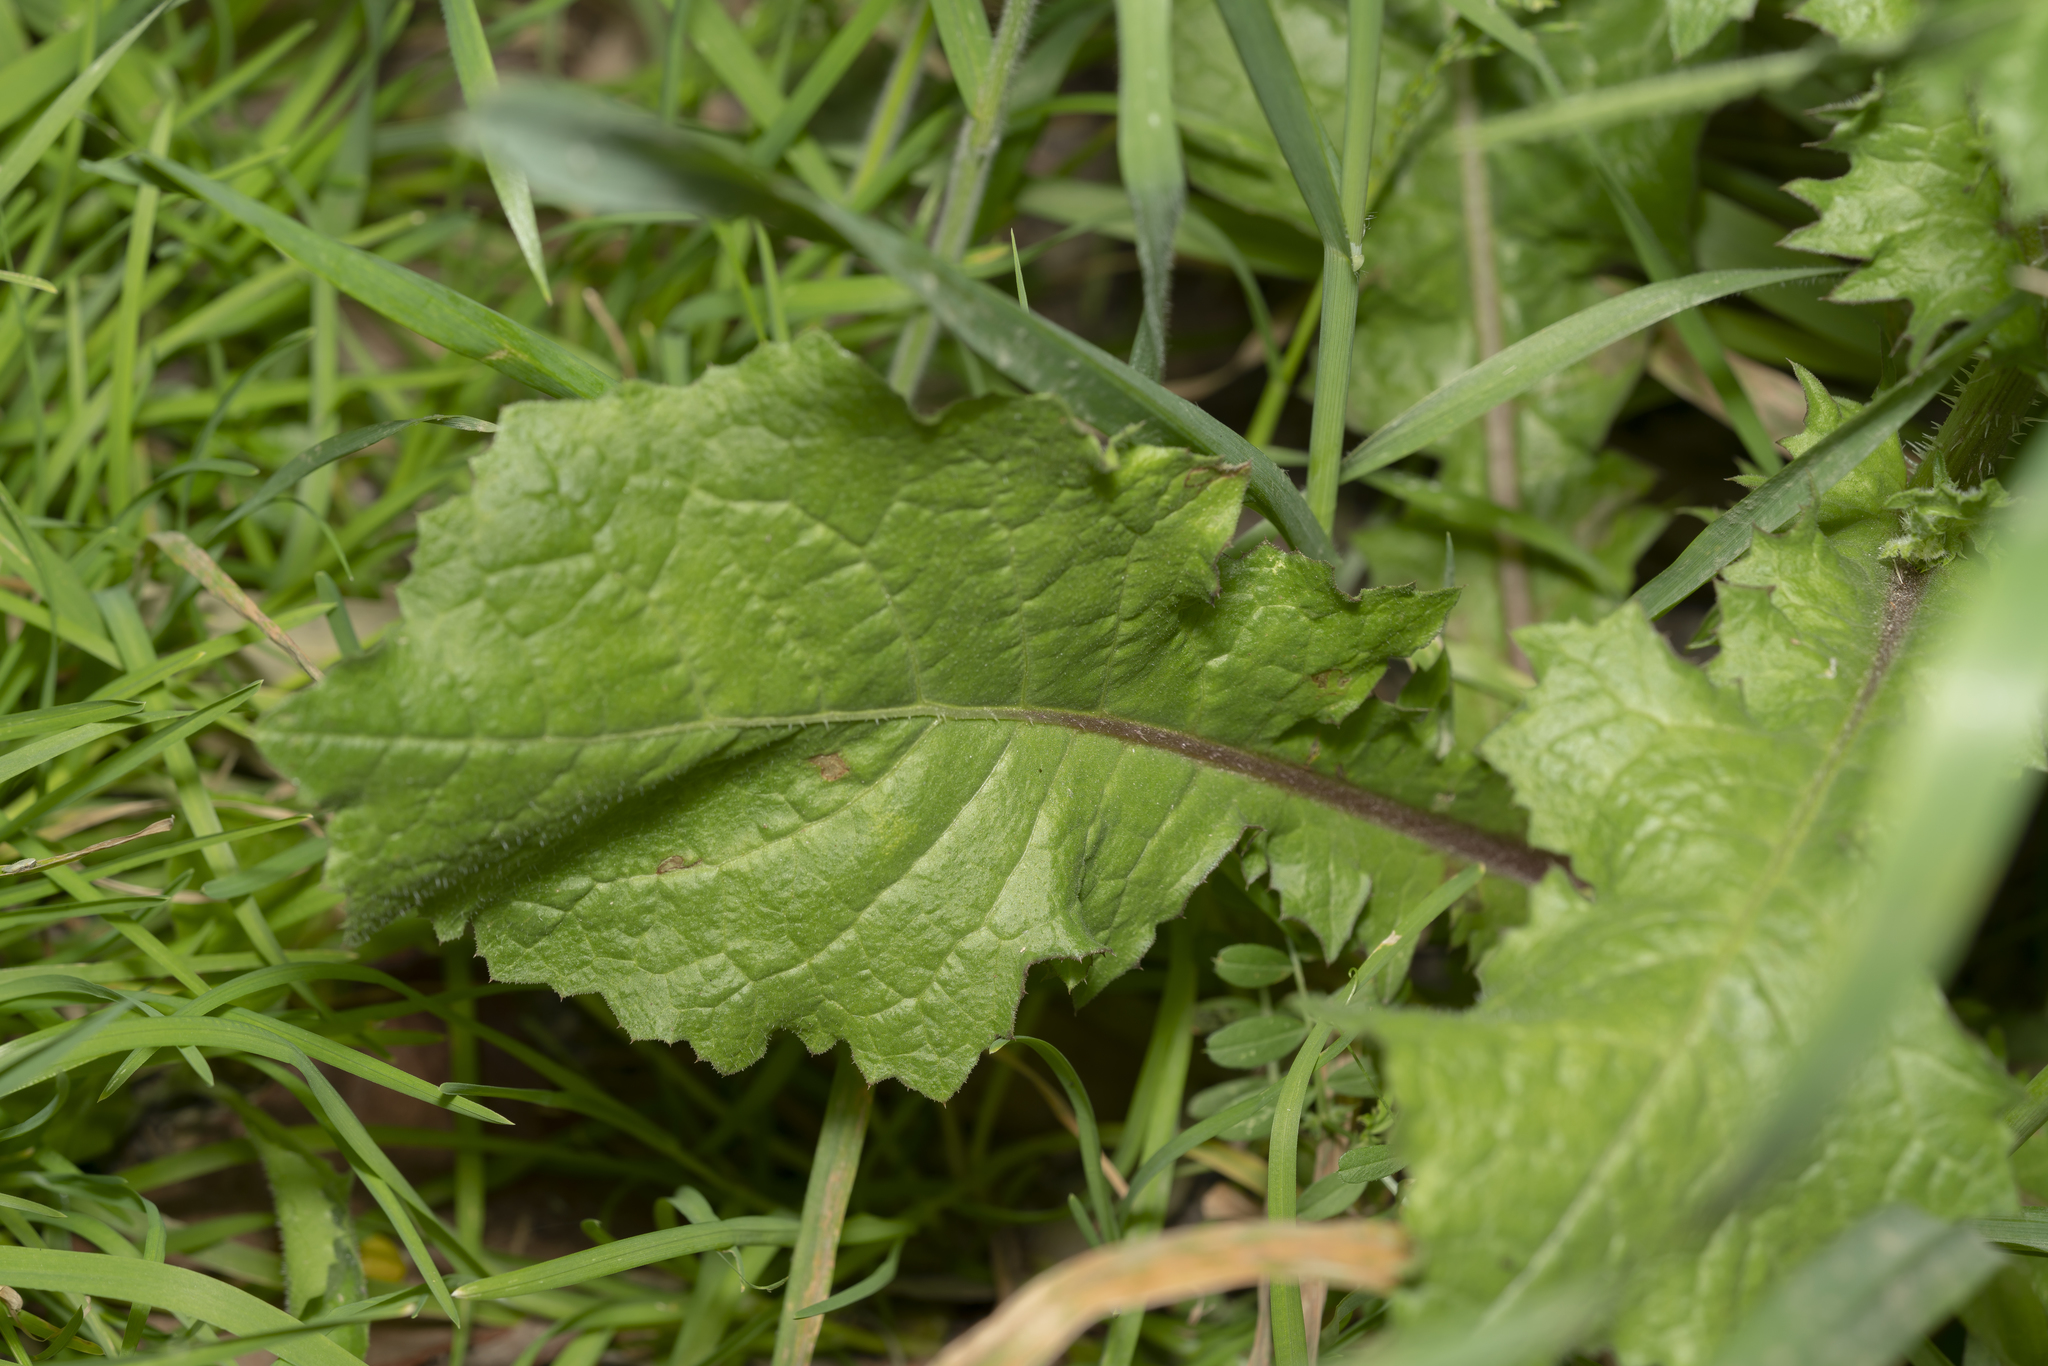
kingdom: Plantae
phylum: Tracheophyta
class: Magnoliopsida
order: Asterales
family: Asteraceae
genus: Urospermum
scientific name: Urospermum picroides
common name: False hawkbit
